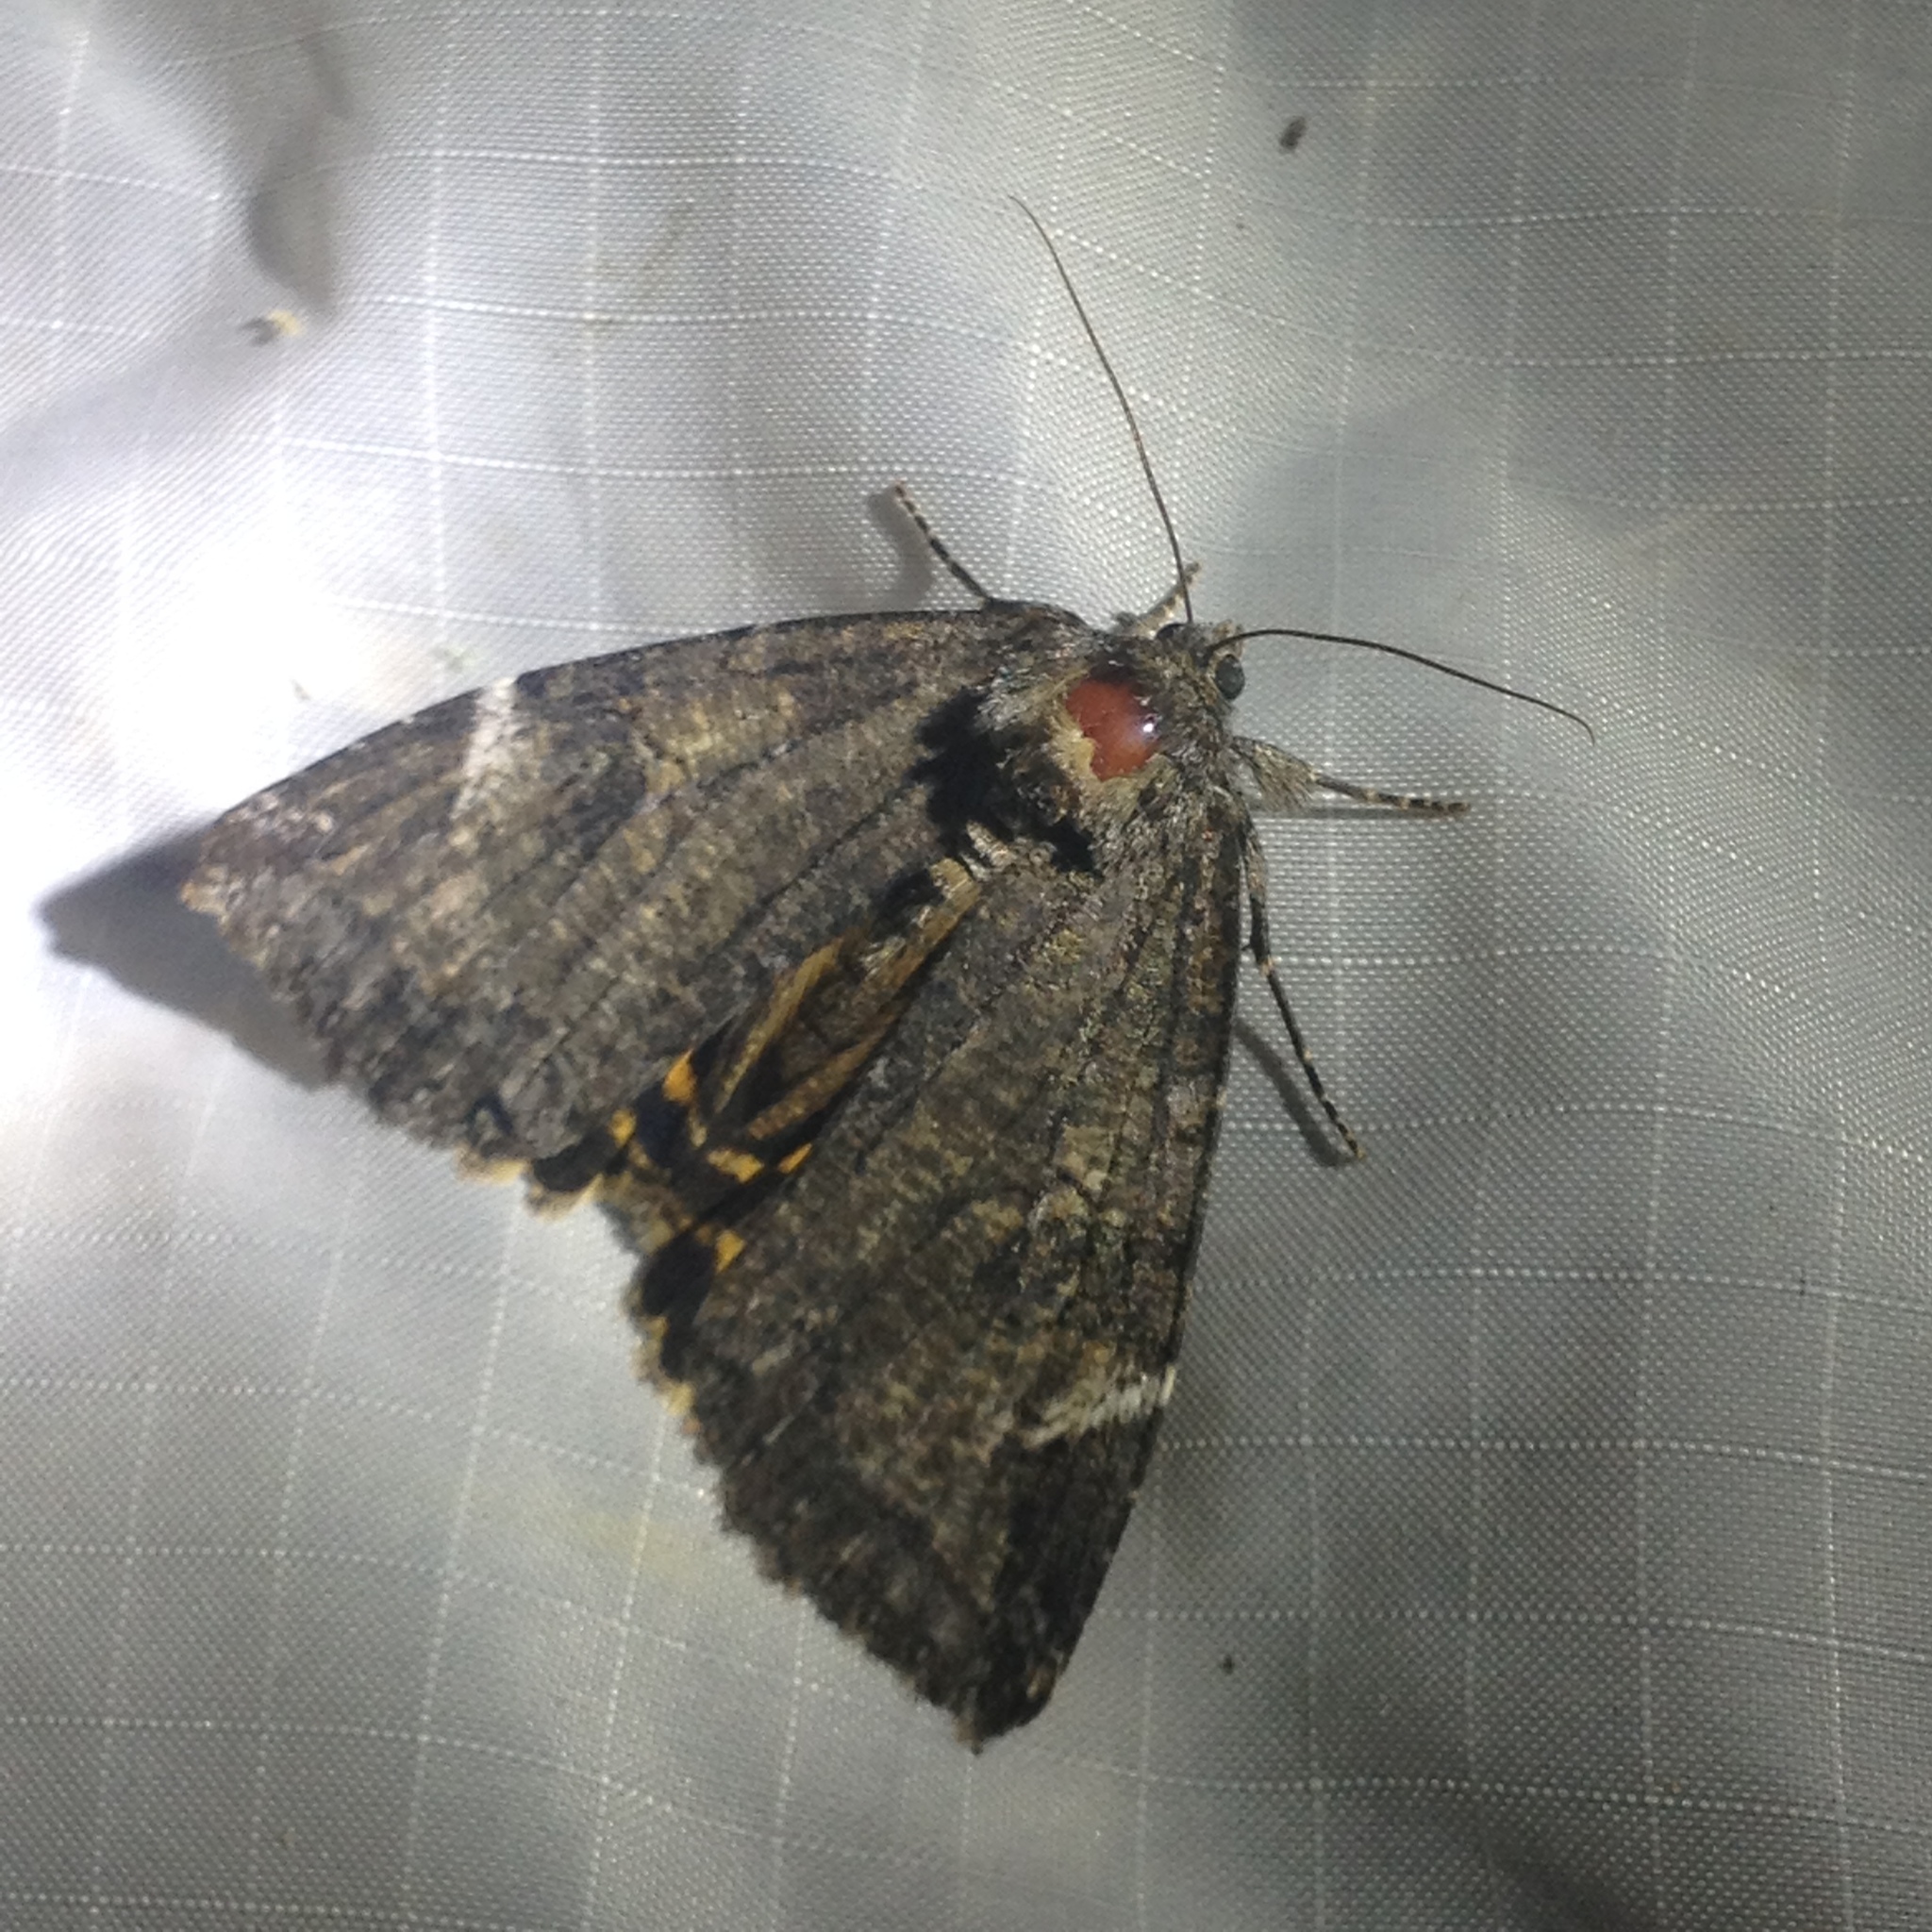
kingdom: Animalia
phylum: Arthropoda
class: Insecta
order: Lepidoptera
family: Erebidae
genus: Euparthenos
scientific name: Euparthenos nubilis
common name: Locust underwing
